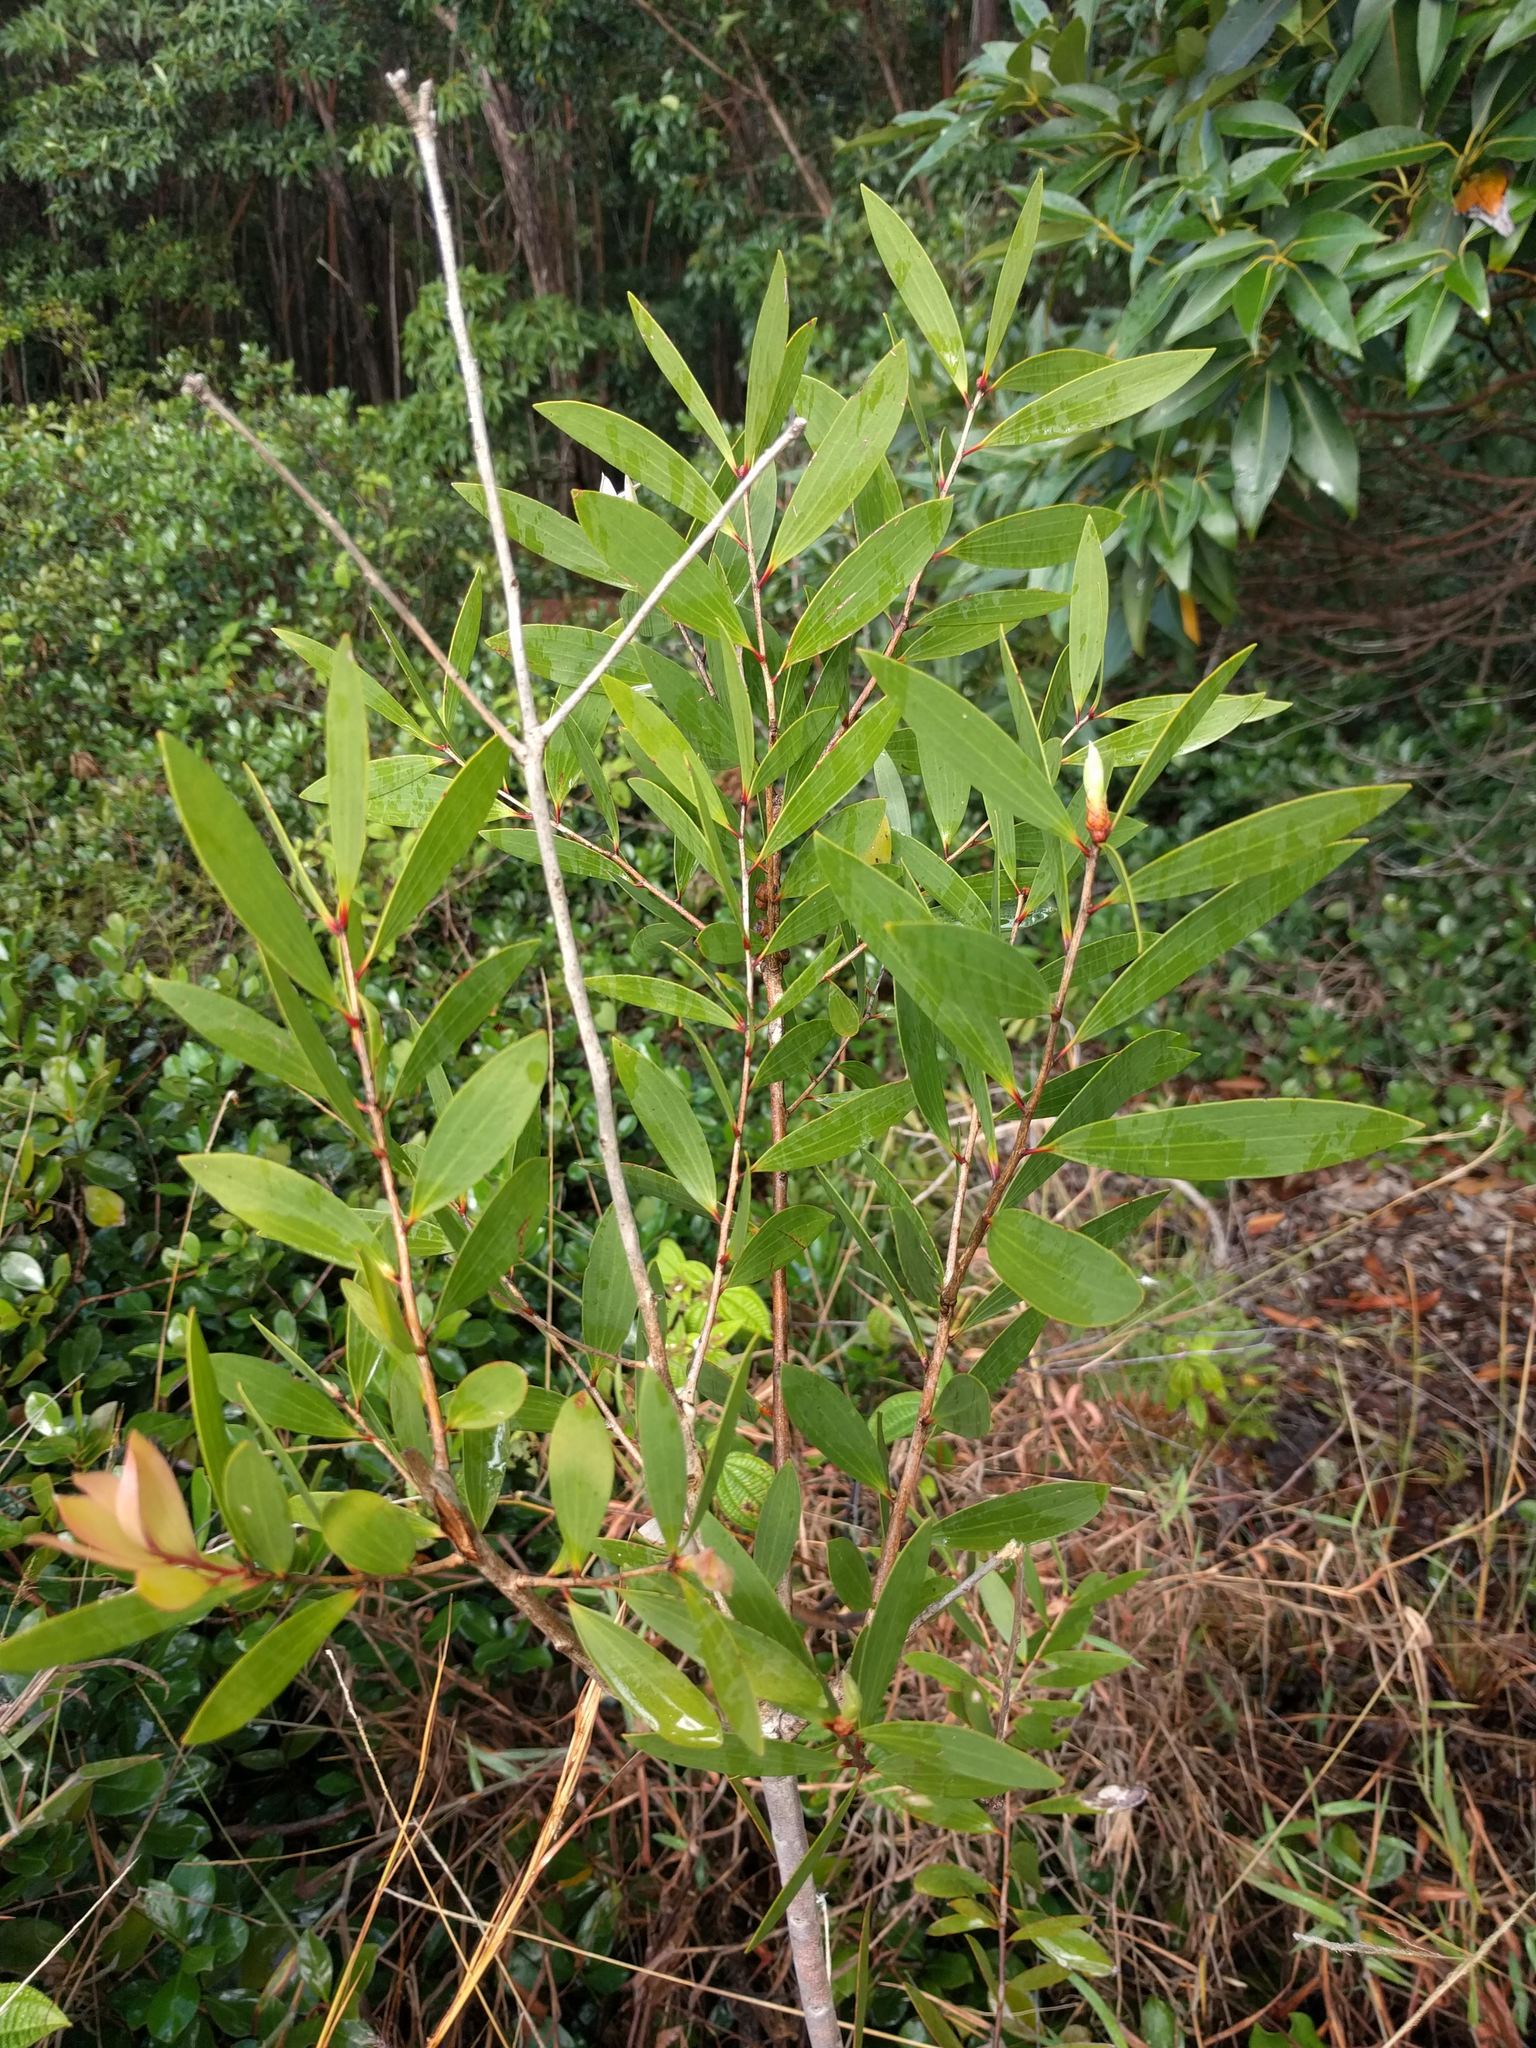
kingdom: Plantae
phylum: Tracheophyta
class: Magnoliopsida
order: Myrtales
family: Myrtaceae
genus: Melaleuca
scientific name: Melaleuca quinquenervia
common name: Punktree
